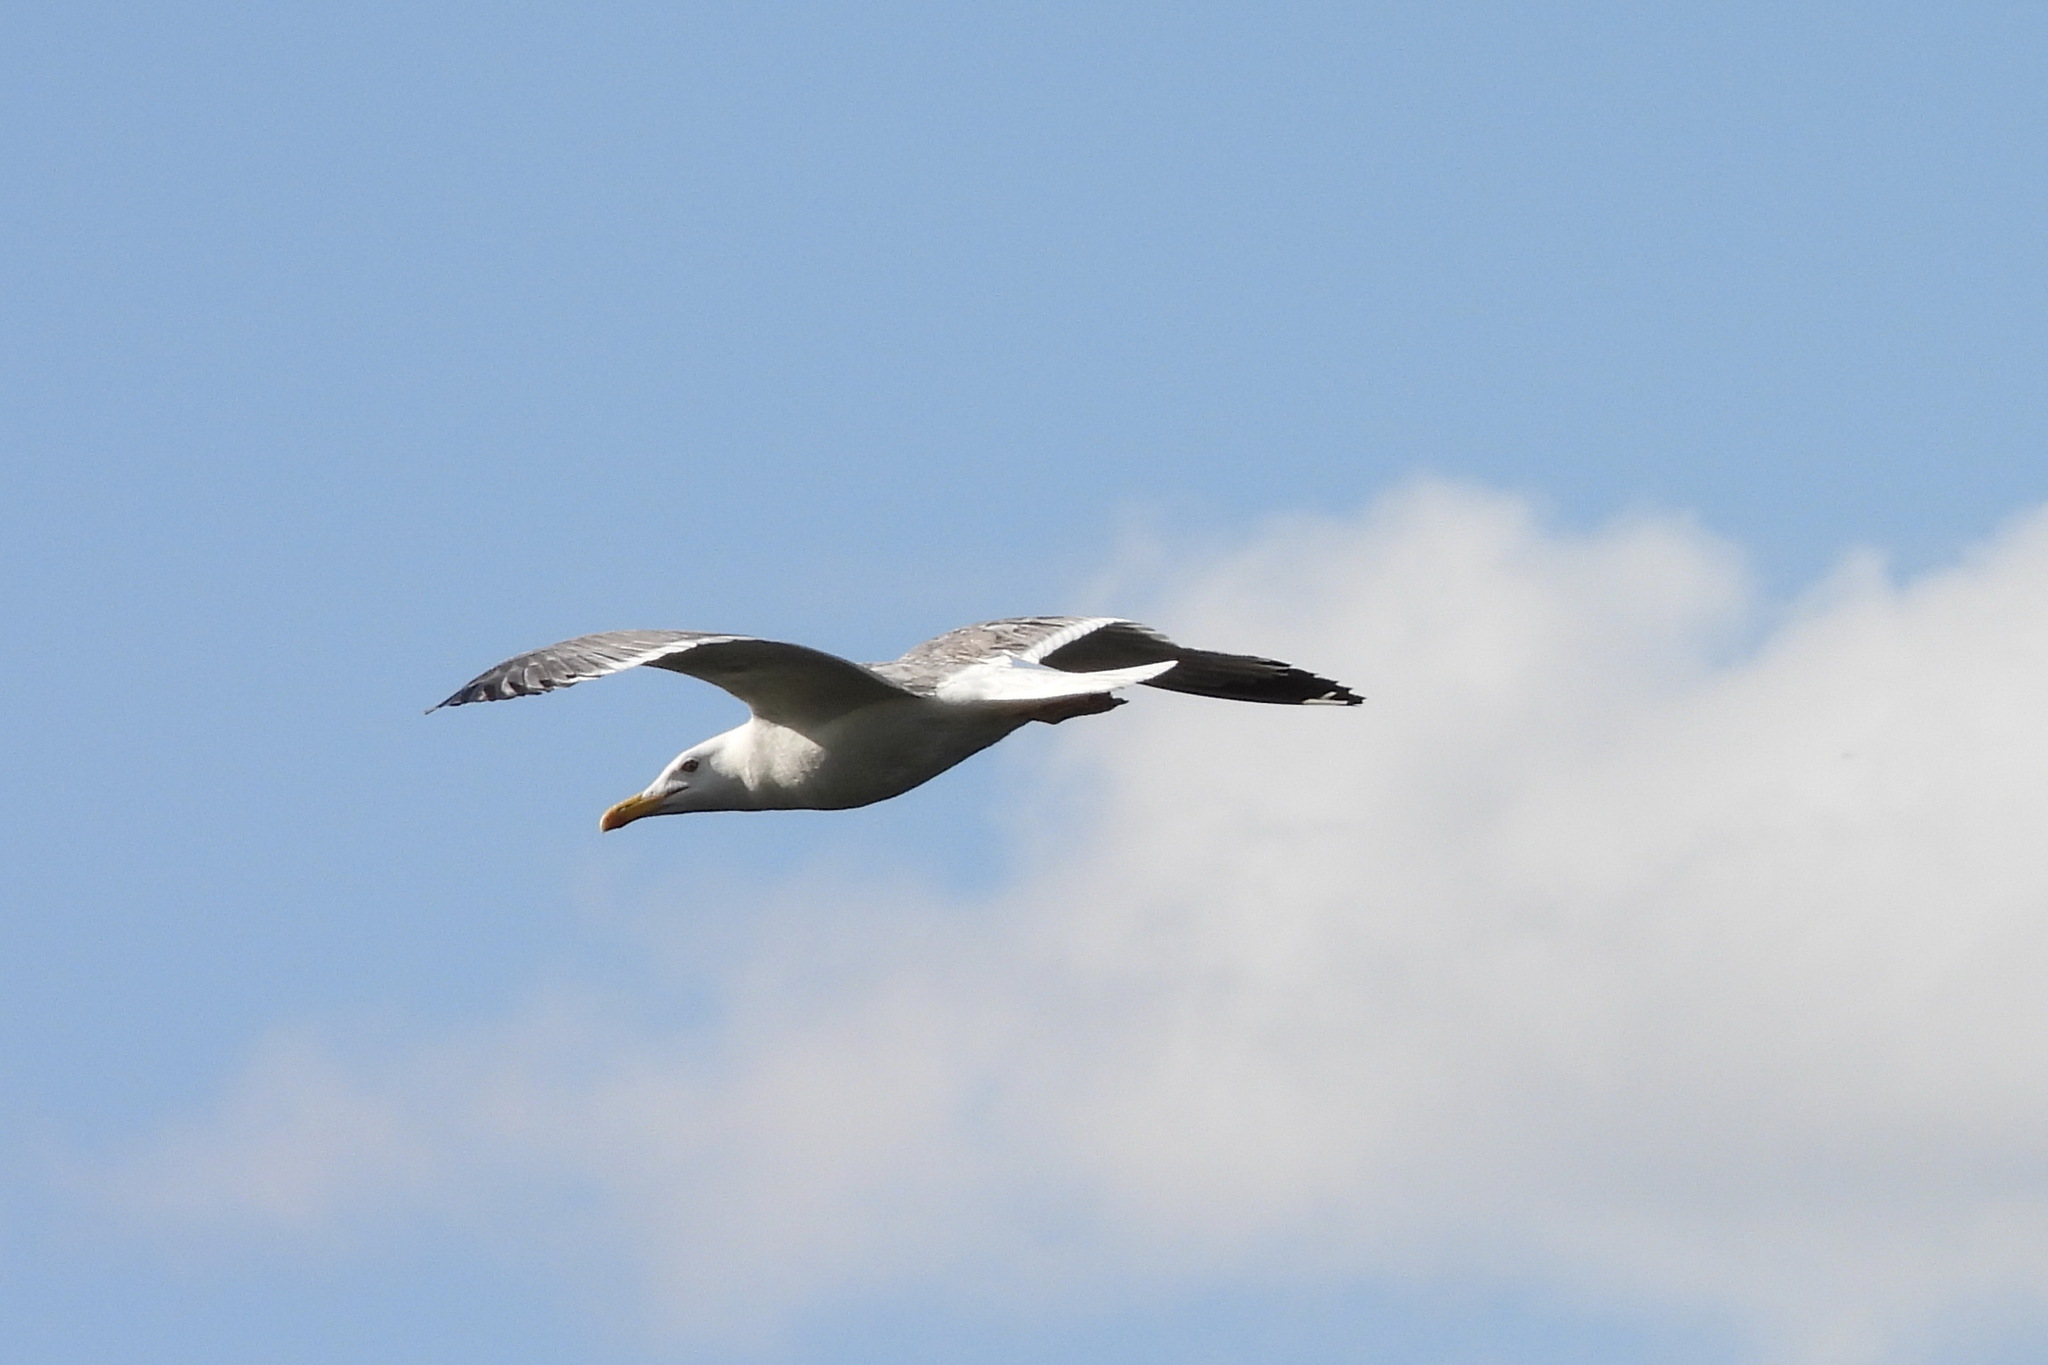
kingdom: Animalia
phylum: Chordata
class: Aves
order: Charadriiformes
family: Laridae
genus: Larus
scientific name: Larus fuscus
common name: Lesser black-backed gull
